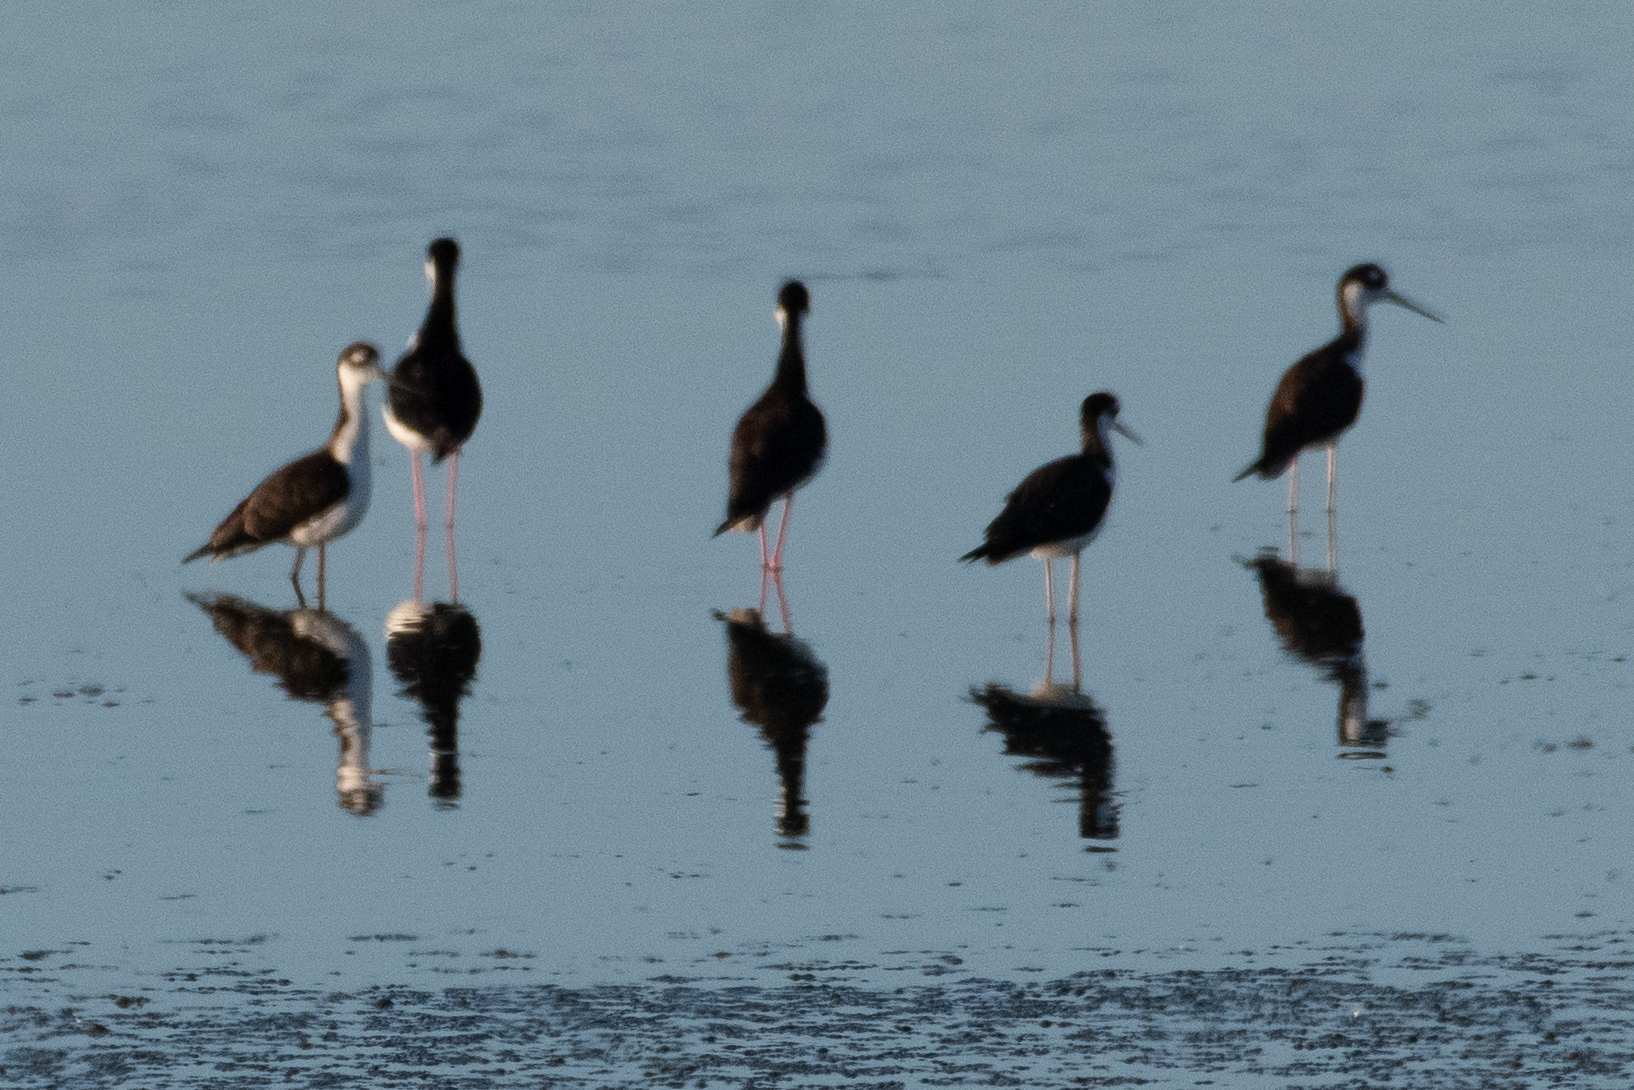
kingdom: Animalia
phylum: Chordata
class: Aves
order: Charadriiformes
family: Recurvirostridae
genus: Himantopus
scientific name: Himantopus mexicanus
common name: Black-necked stilt
